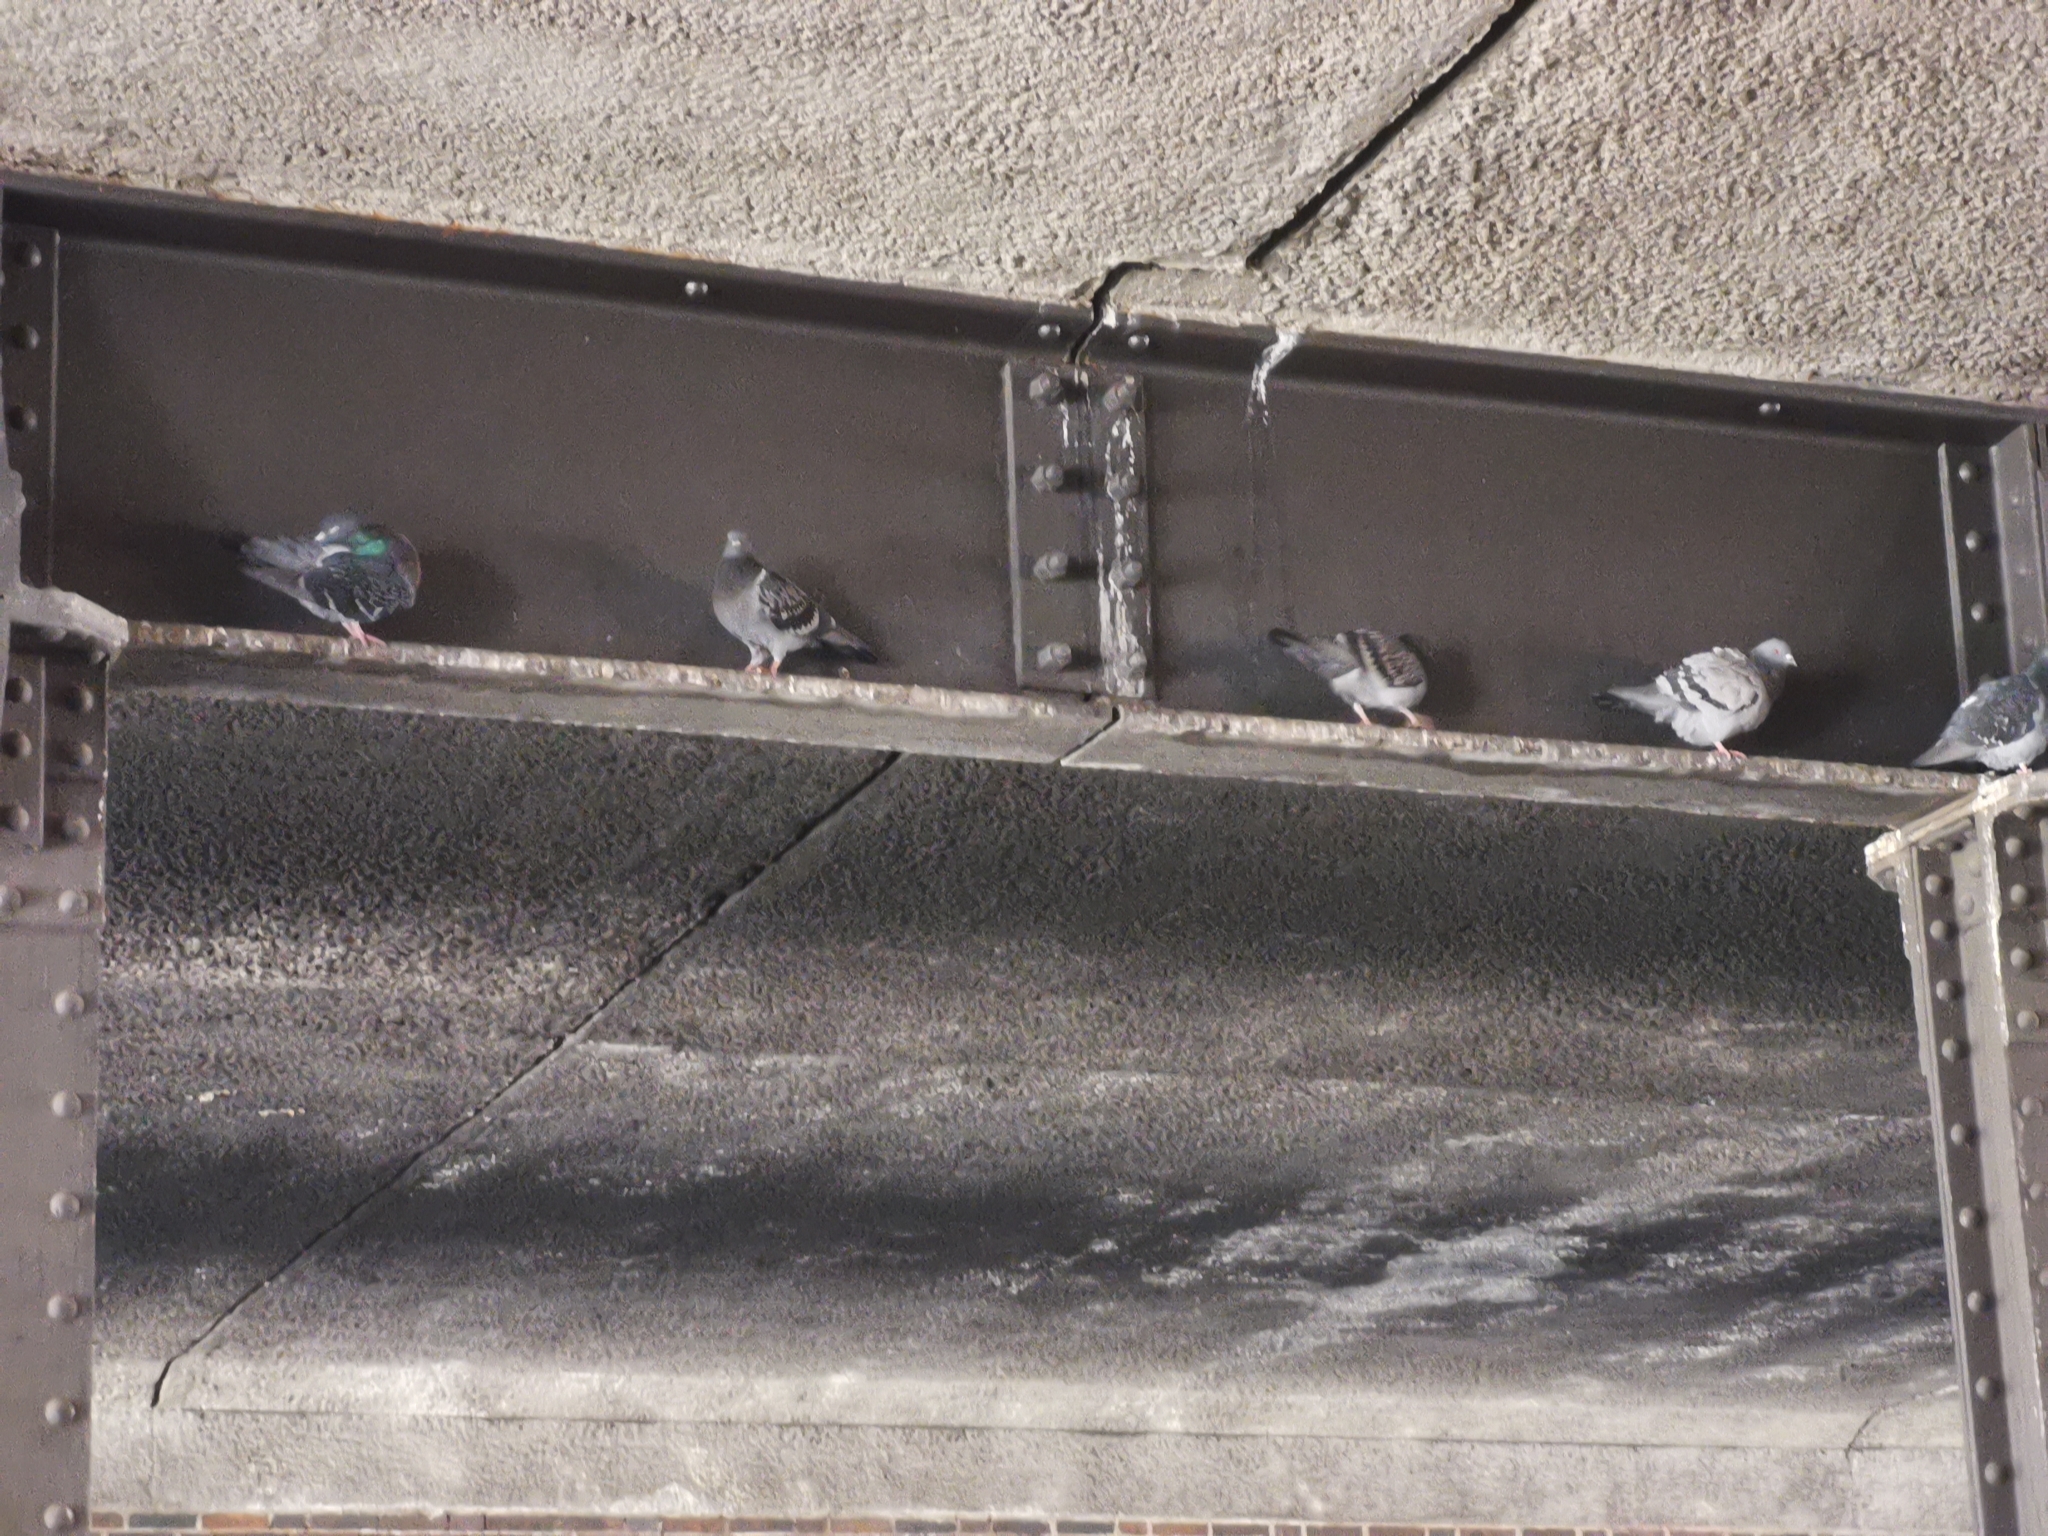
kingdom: Animalia
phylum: Chordata
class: Aves
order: Columbiformes
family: Columbidae
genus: Columba
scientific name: Columba livia
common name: Rock pigeon
